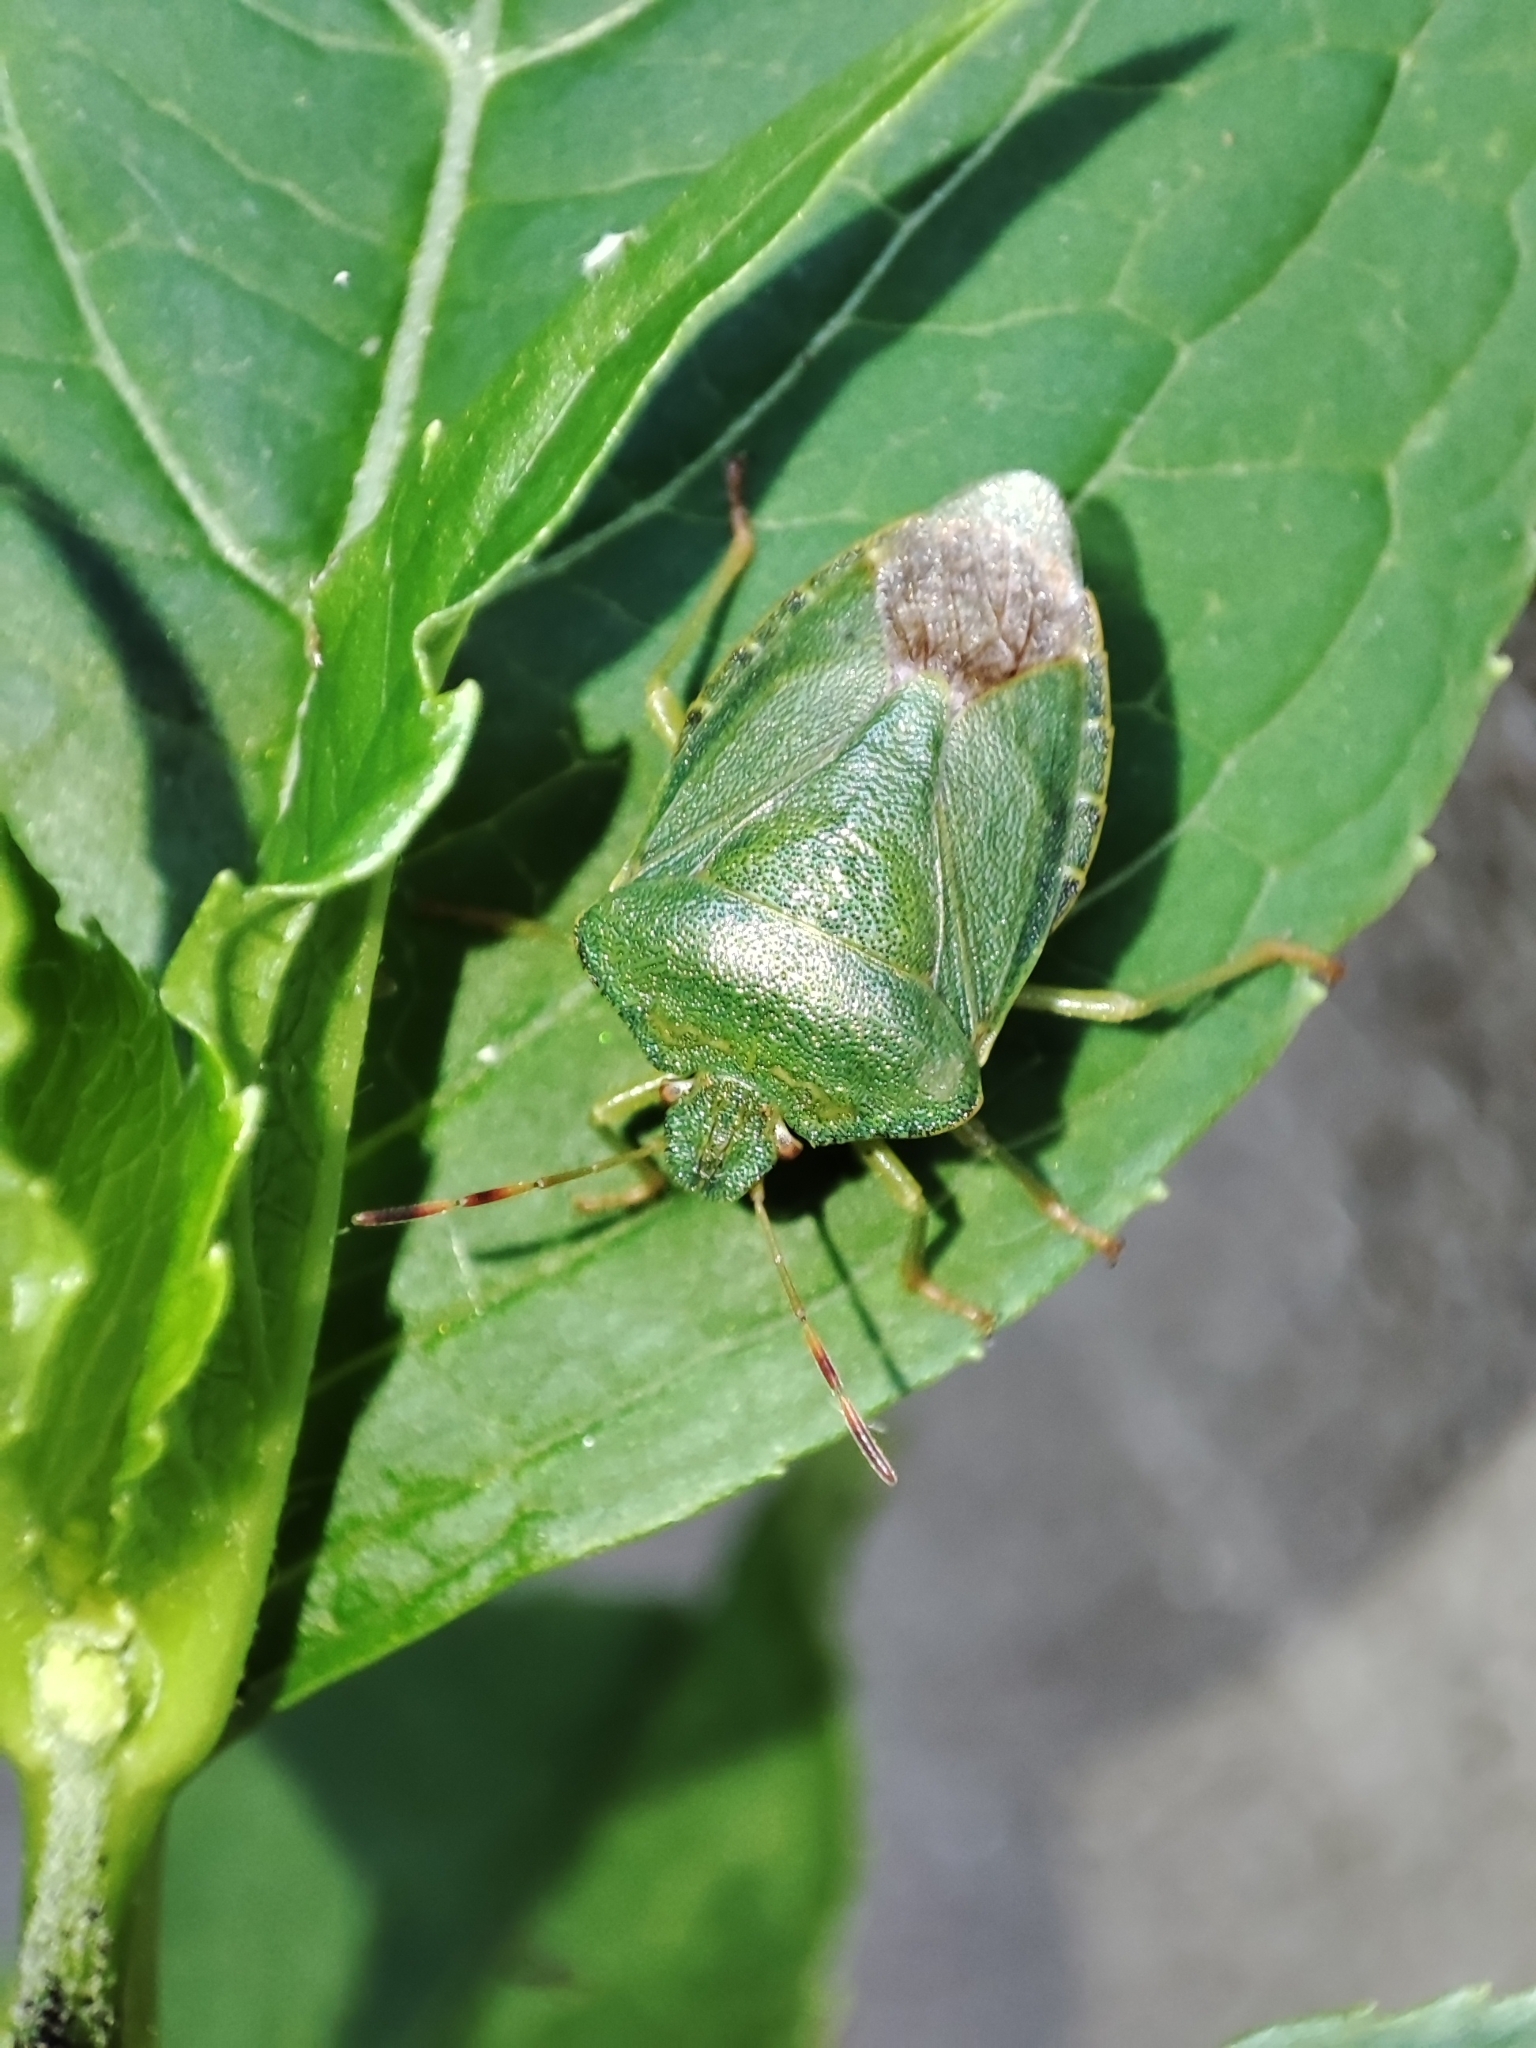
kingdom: Animalia
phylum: Arthropoda
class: Insecta
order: Hemiptera
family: Pentatomidae
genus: Palomena
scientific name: Palomena prasina
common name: Green shieldbug
